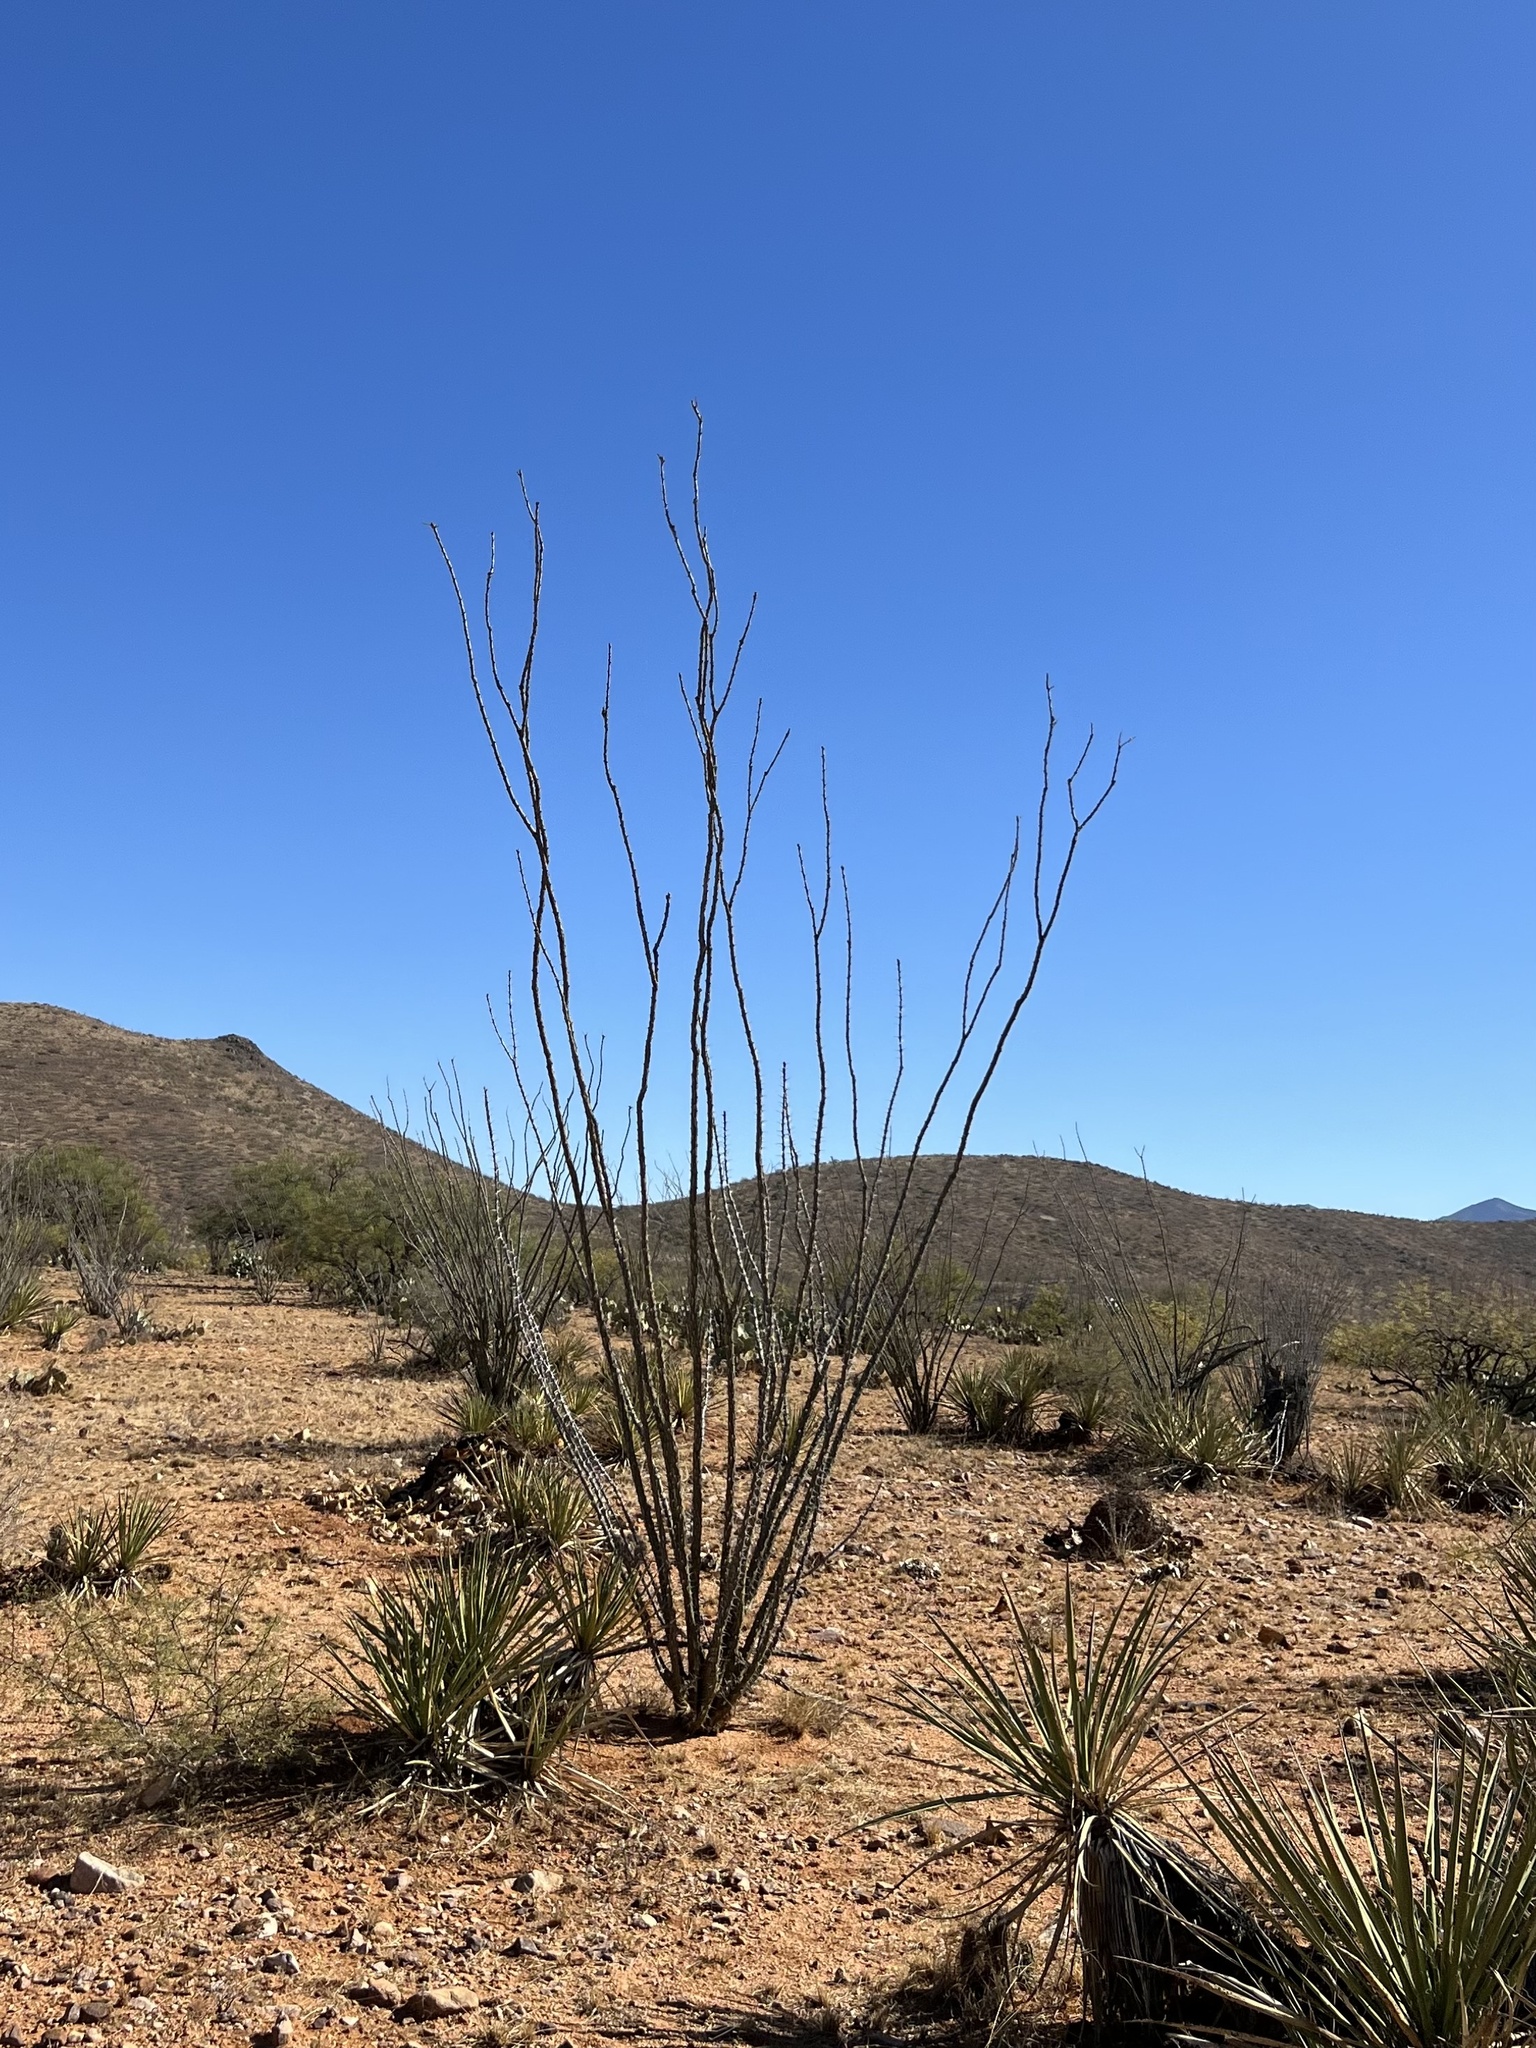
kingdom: Plantae
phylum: Tracheophyta
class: Magnoliopsida
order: Ericales
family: Fouquieriaceae
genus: Fouquieria
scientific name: Fouquieria splendens
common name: Vine-cactus
